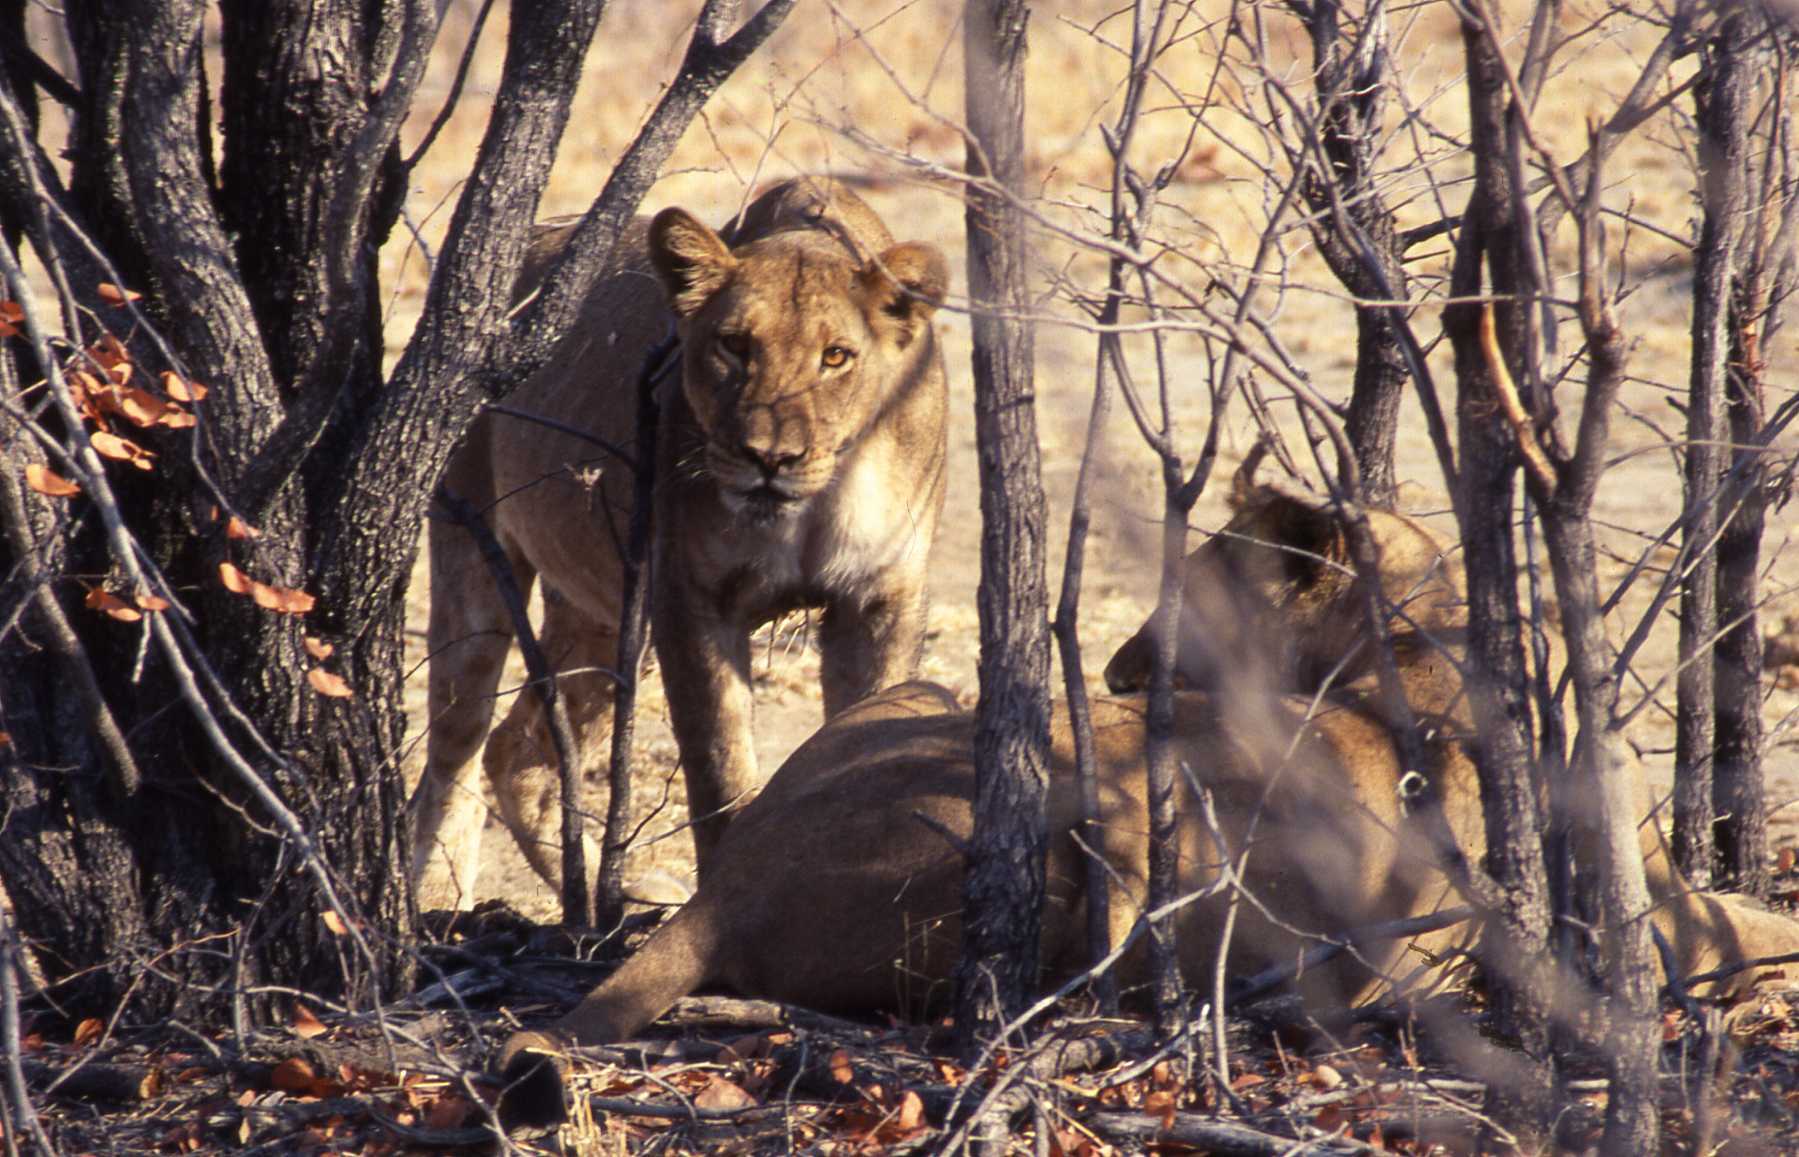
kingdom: Animalia
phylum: Chordata
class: Mammalia
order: Carnivora
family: Felidae
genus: Panthera
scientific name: Panthera leo
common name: Lion
